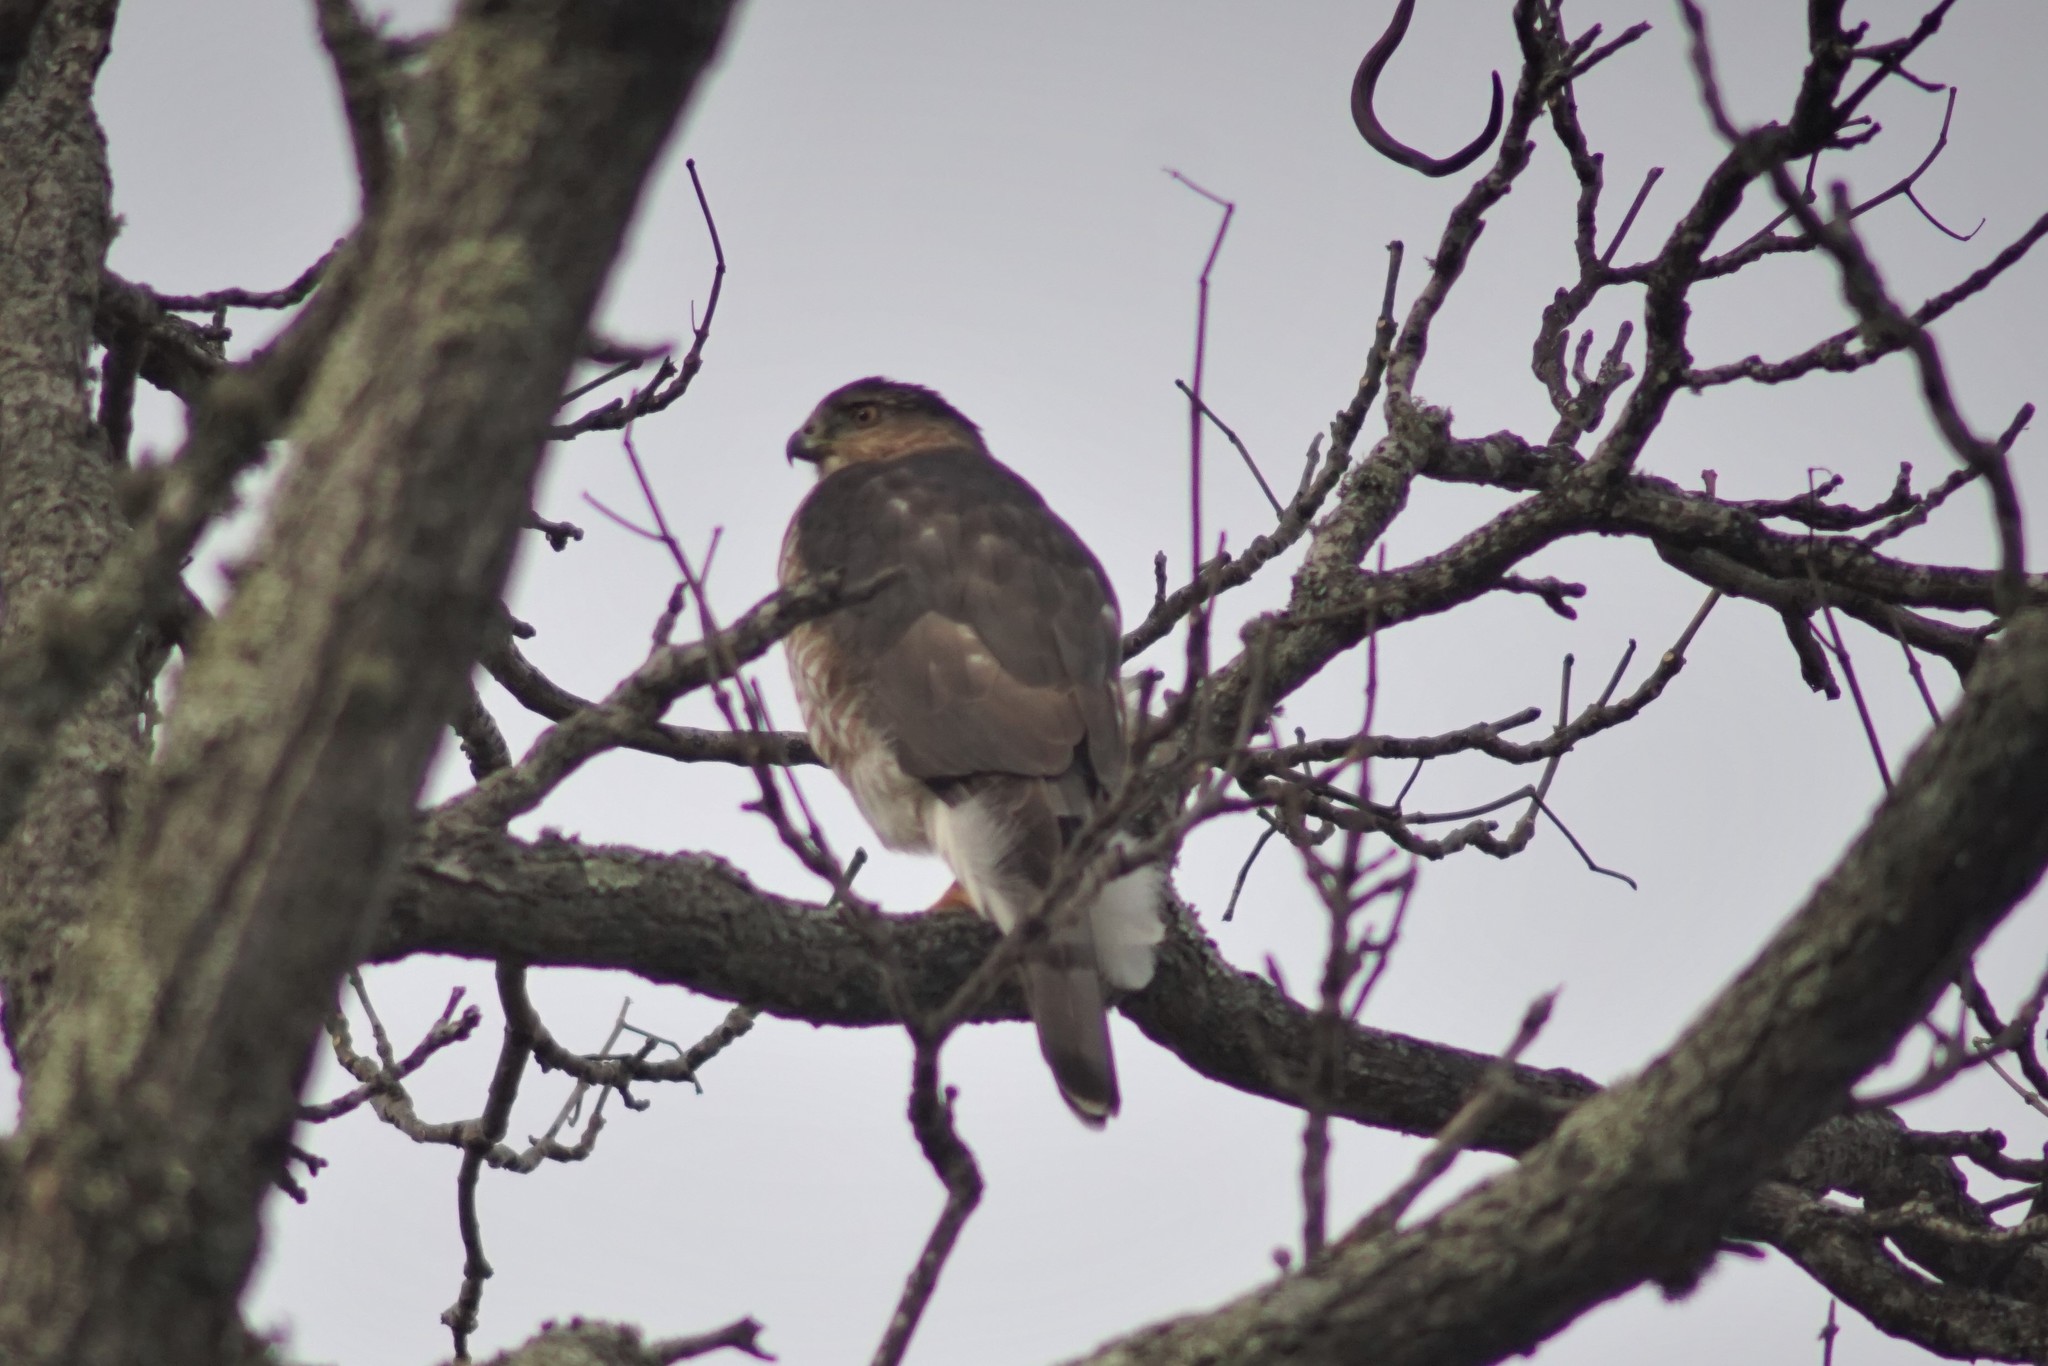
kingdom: Animalia
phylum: Chordata
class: Aves
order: Accipitriformes
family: Accipitridae
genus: Accipiter
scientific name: Accipiter cooperii
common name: Cooper's hawk
